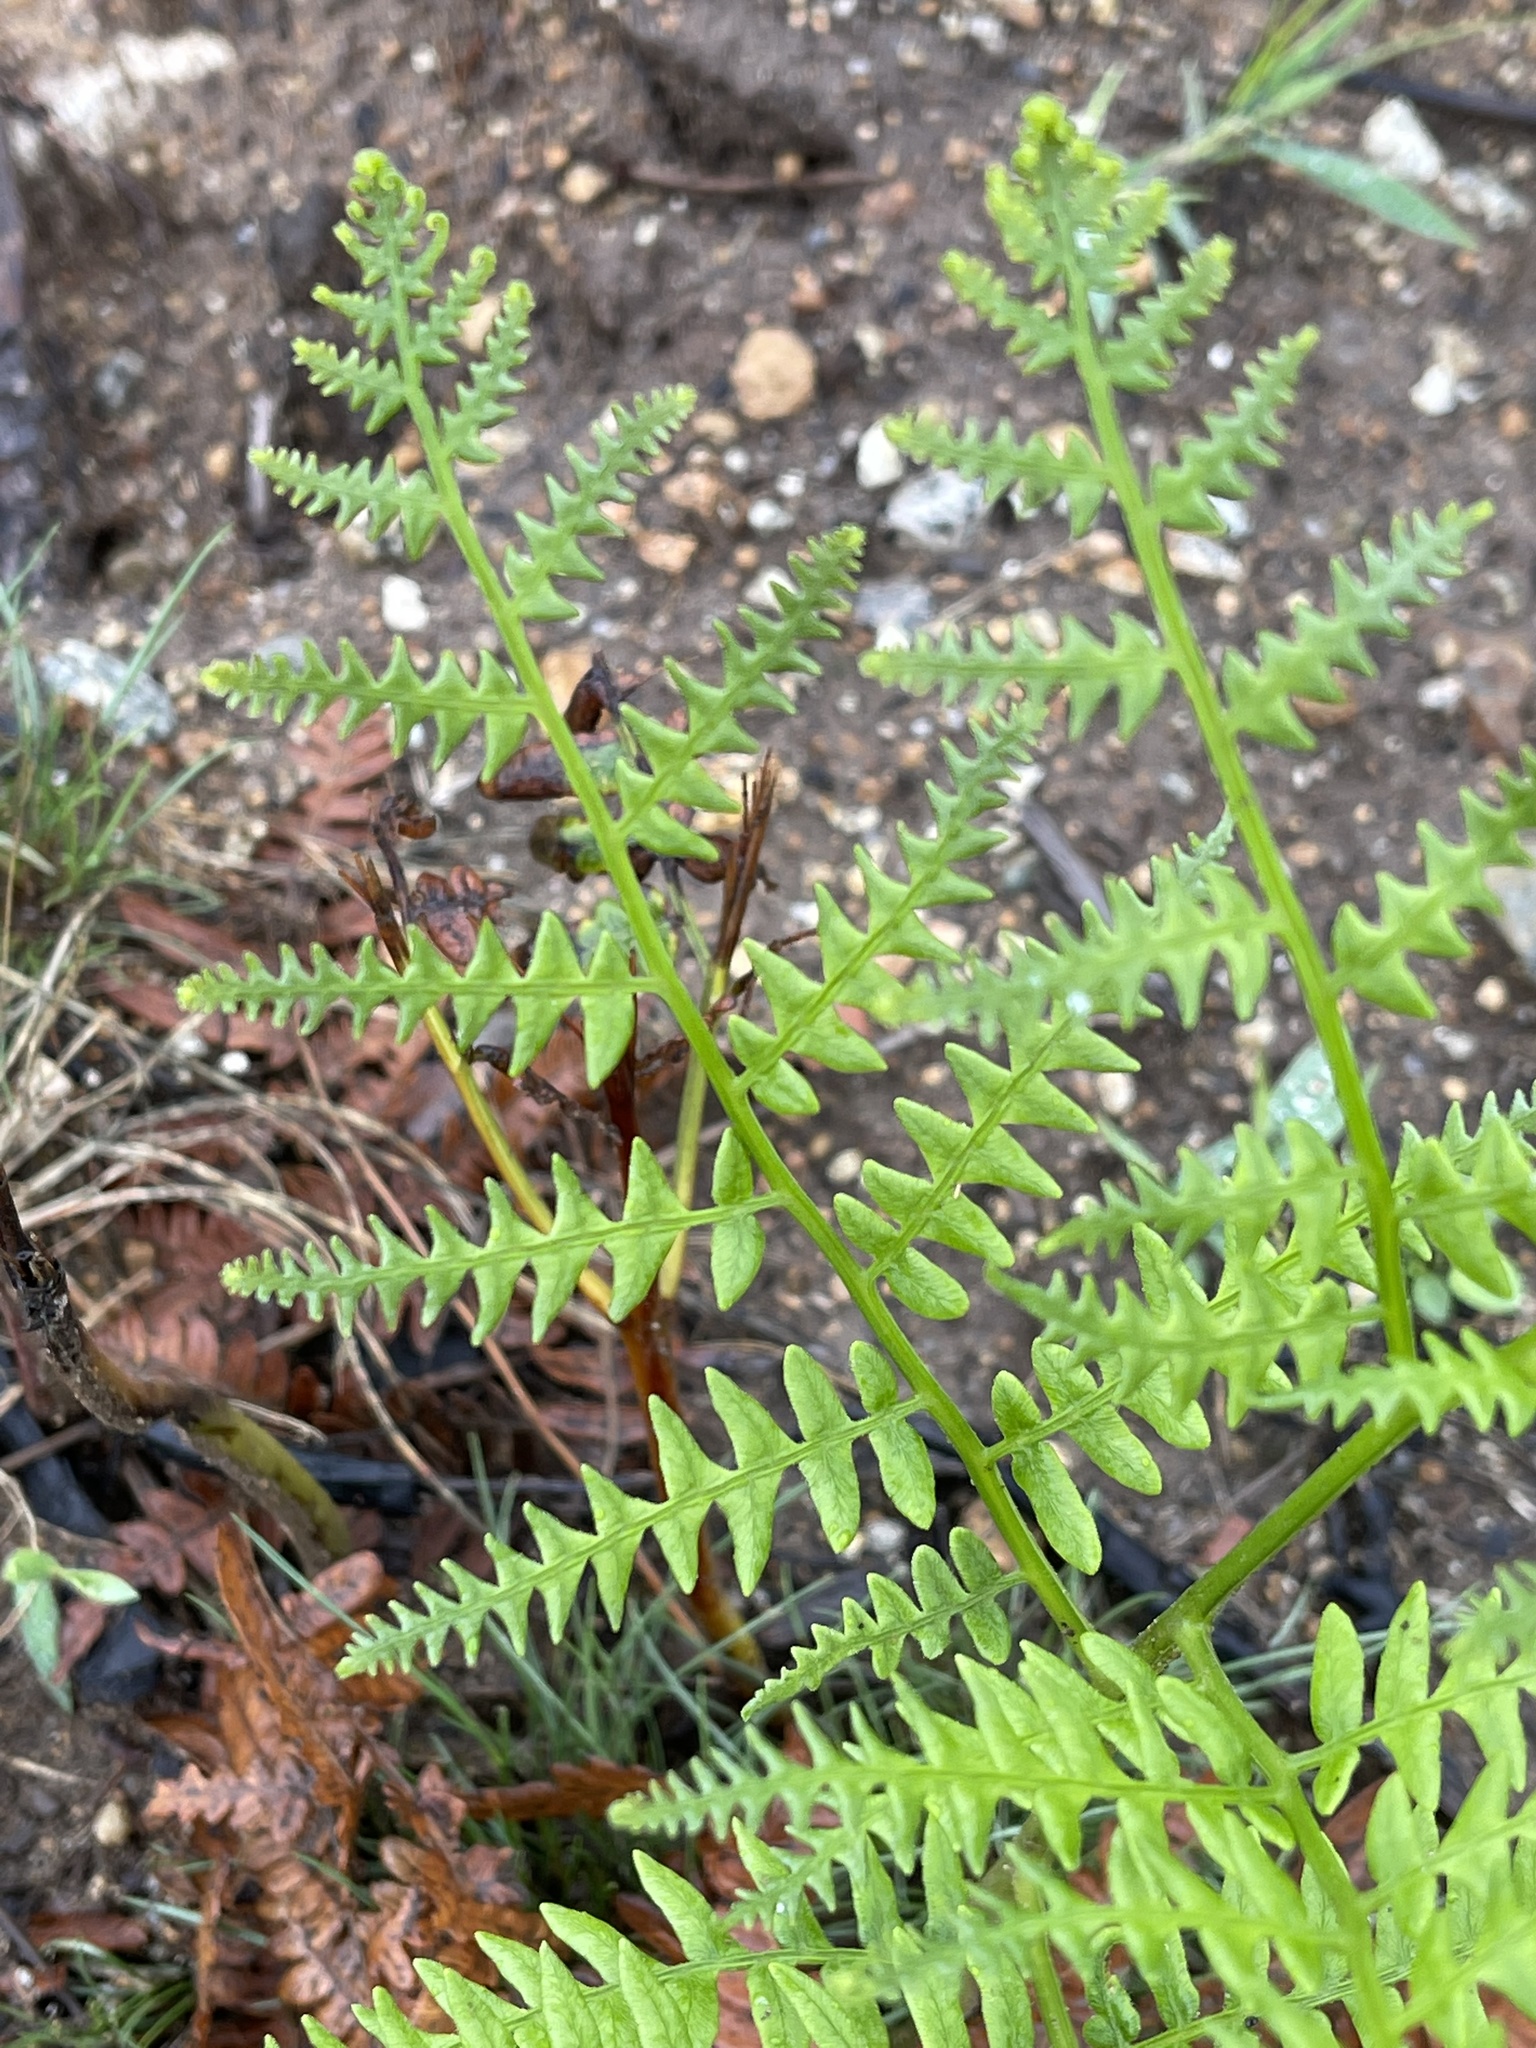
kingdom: Plantae
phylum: Tracheophyta
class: Polypodiopsida
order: Polypodiales
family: Dennstaedtiaceae
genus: Pteridium
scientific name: Pteridium aquilinum
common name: Bracken
